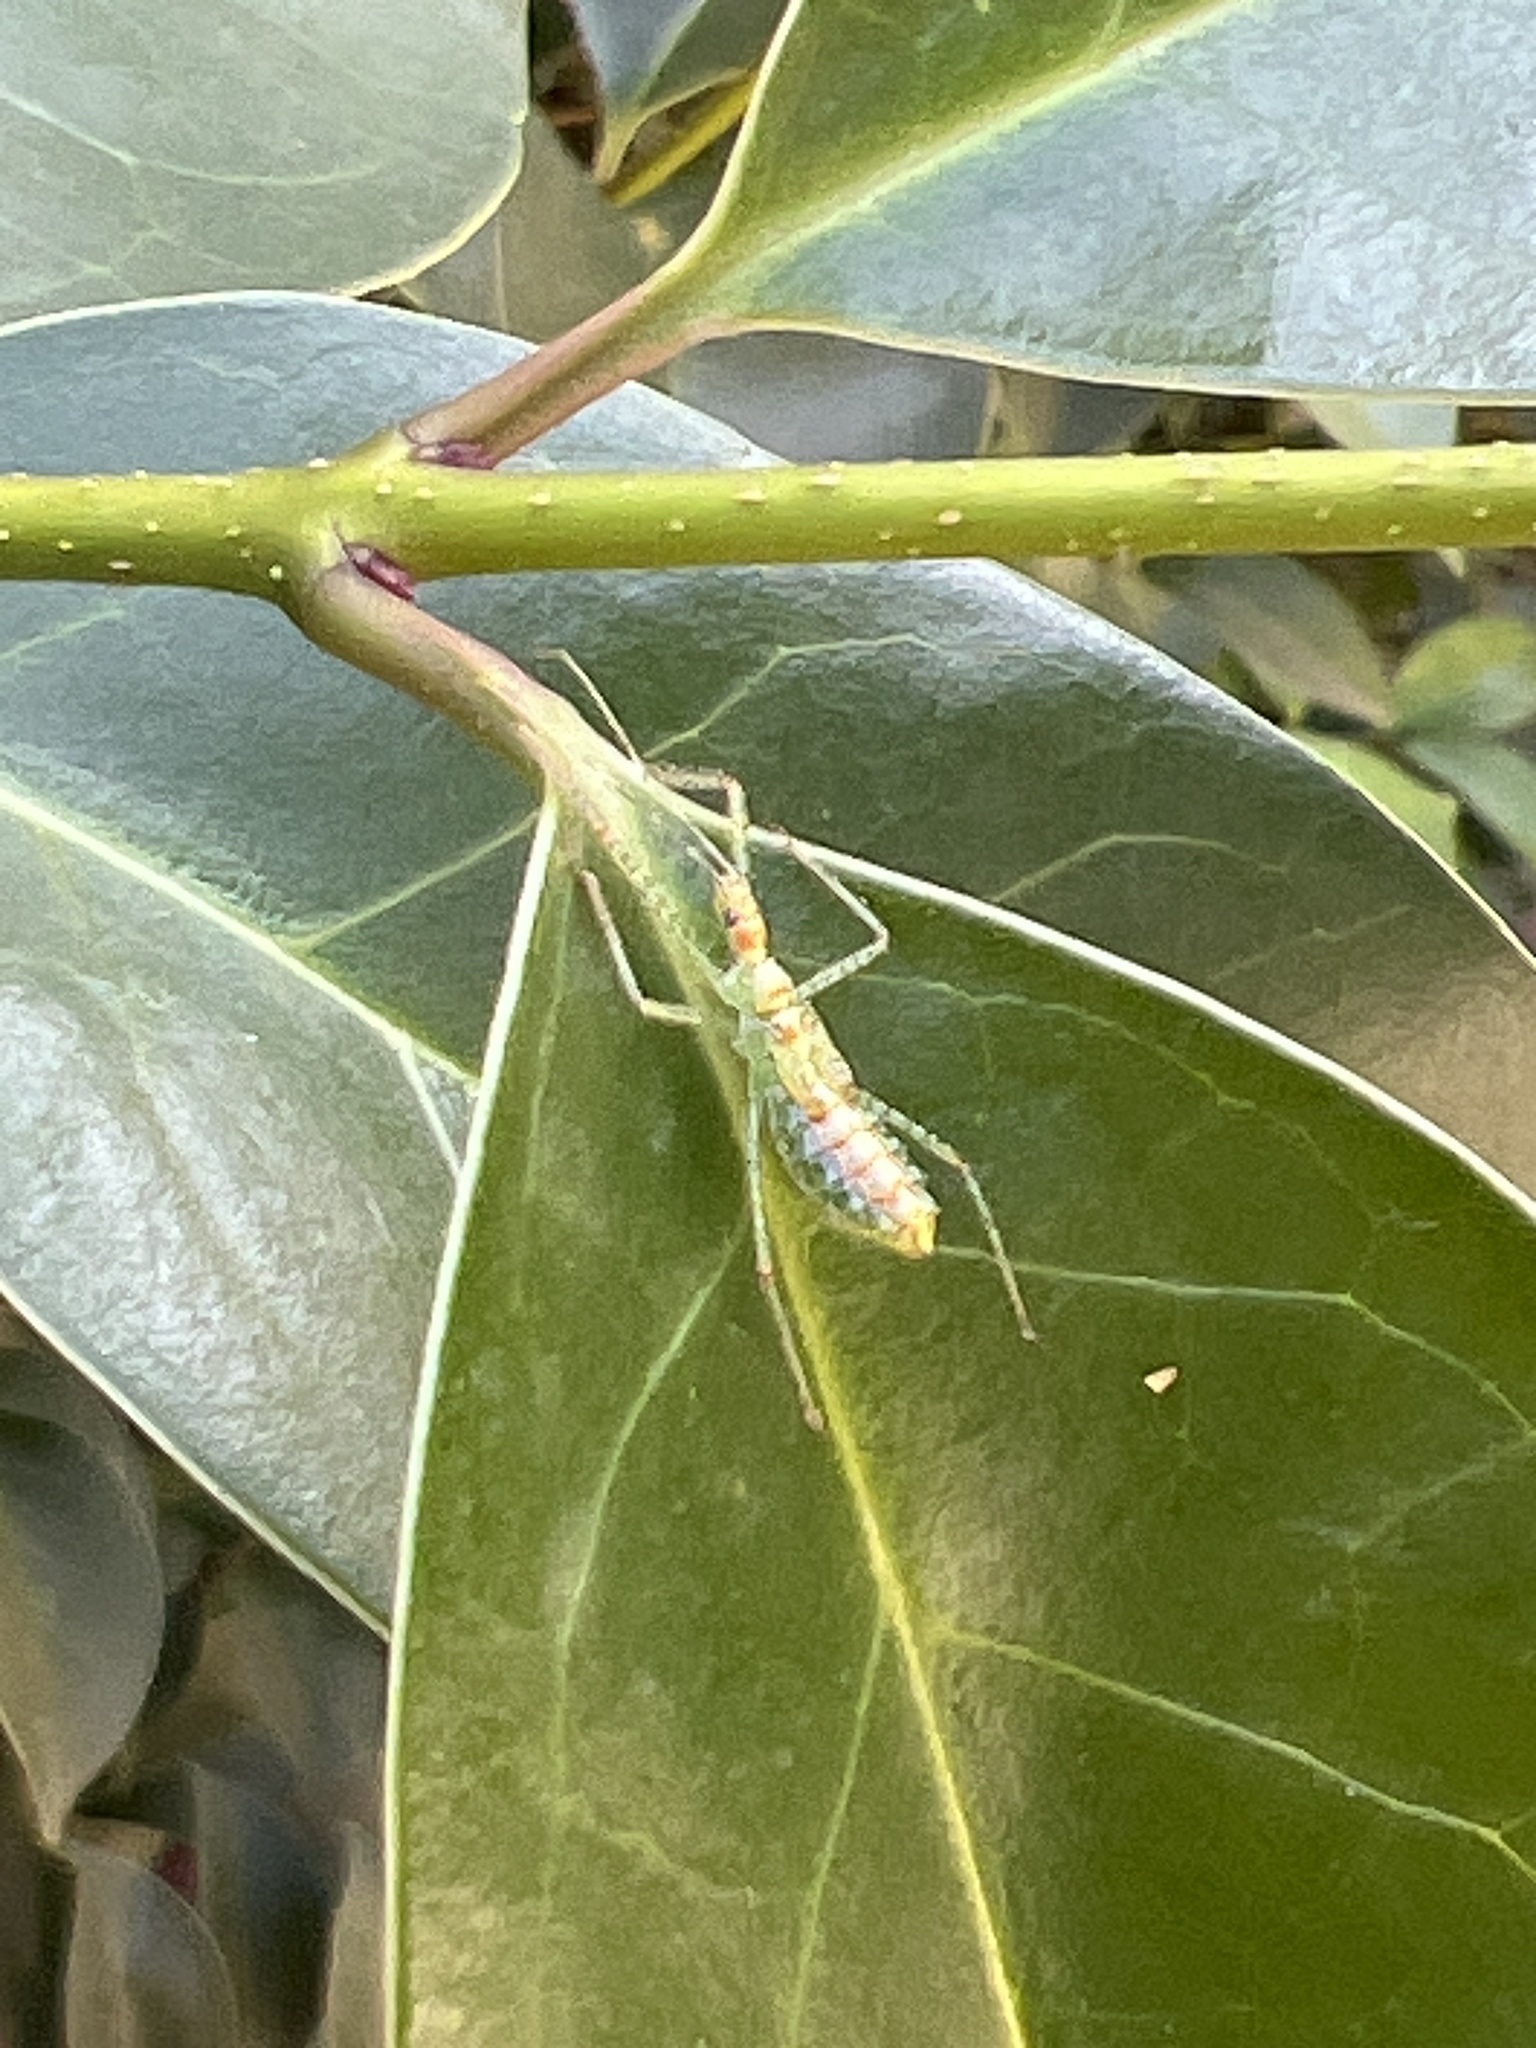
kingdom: Animalia
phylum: Arthropoda
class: Insecta
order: Hemiptera
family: Reduviidae
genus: Zelus
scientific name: Zelus renardii
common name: Assassin bug
